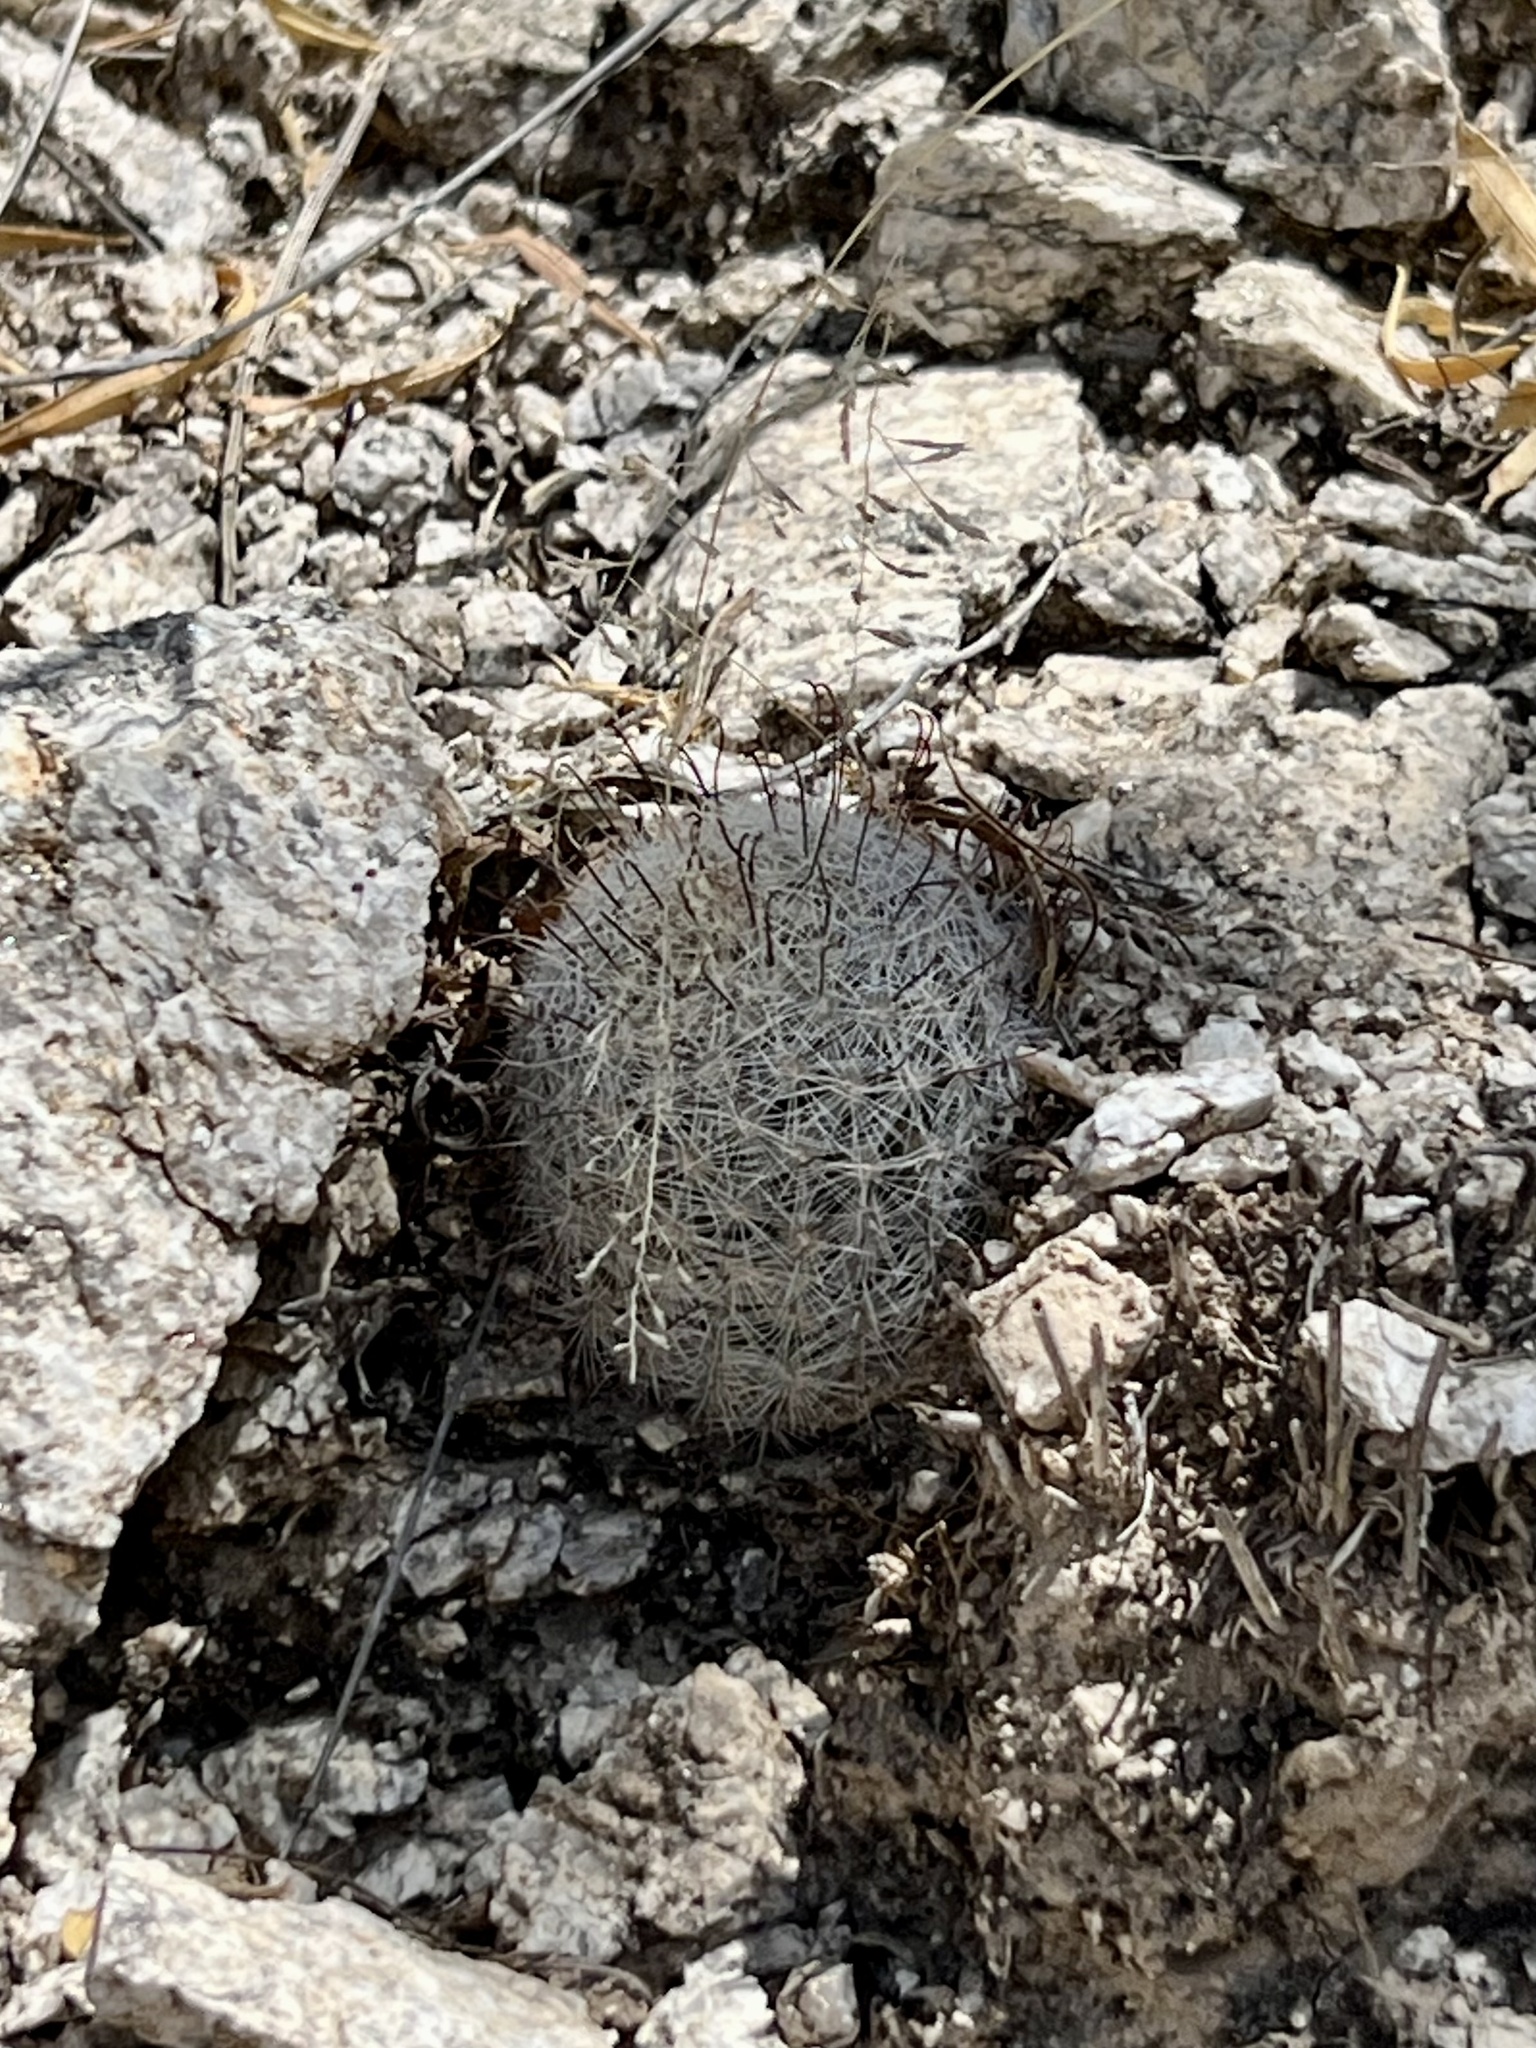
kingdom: Plantae
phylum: Tracheophyta
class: Magnoliopsida
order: Caryophyllales
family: Cactaceae
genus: Cochemiea
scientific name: Cochemiea grahamii
